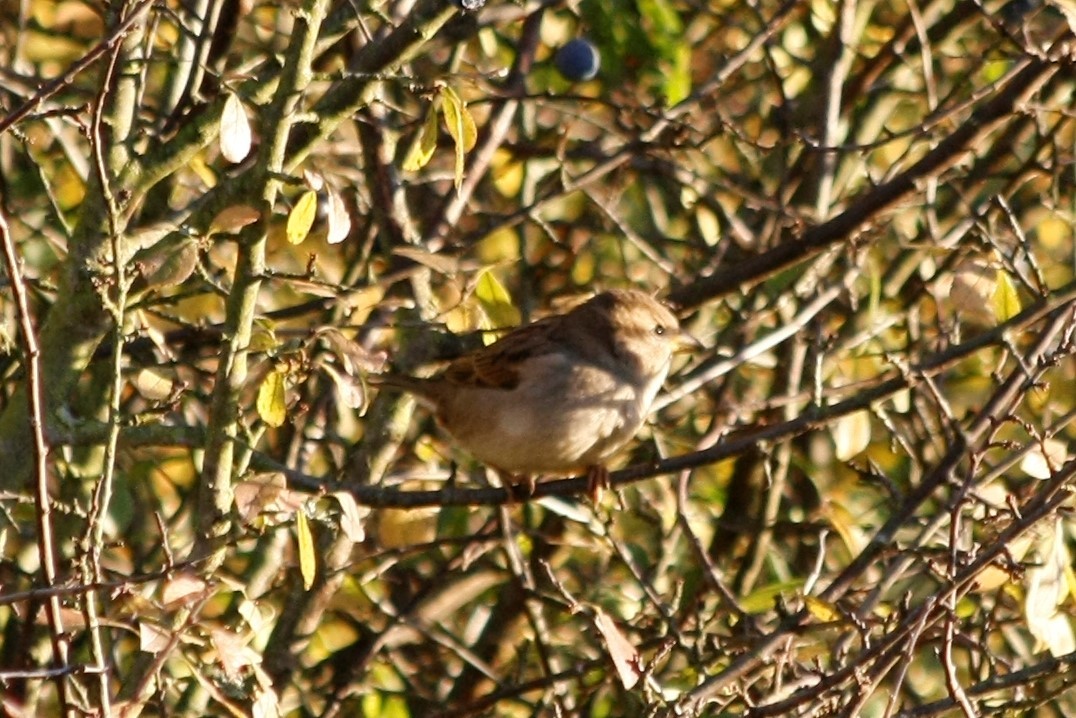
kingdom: Animalia
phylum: Chordata
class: Aves
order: Passeriformes
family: Passeridae
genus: Passer
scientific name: Passer domesticus
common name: House sparrow
